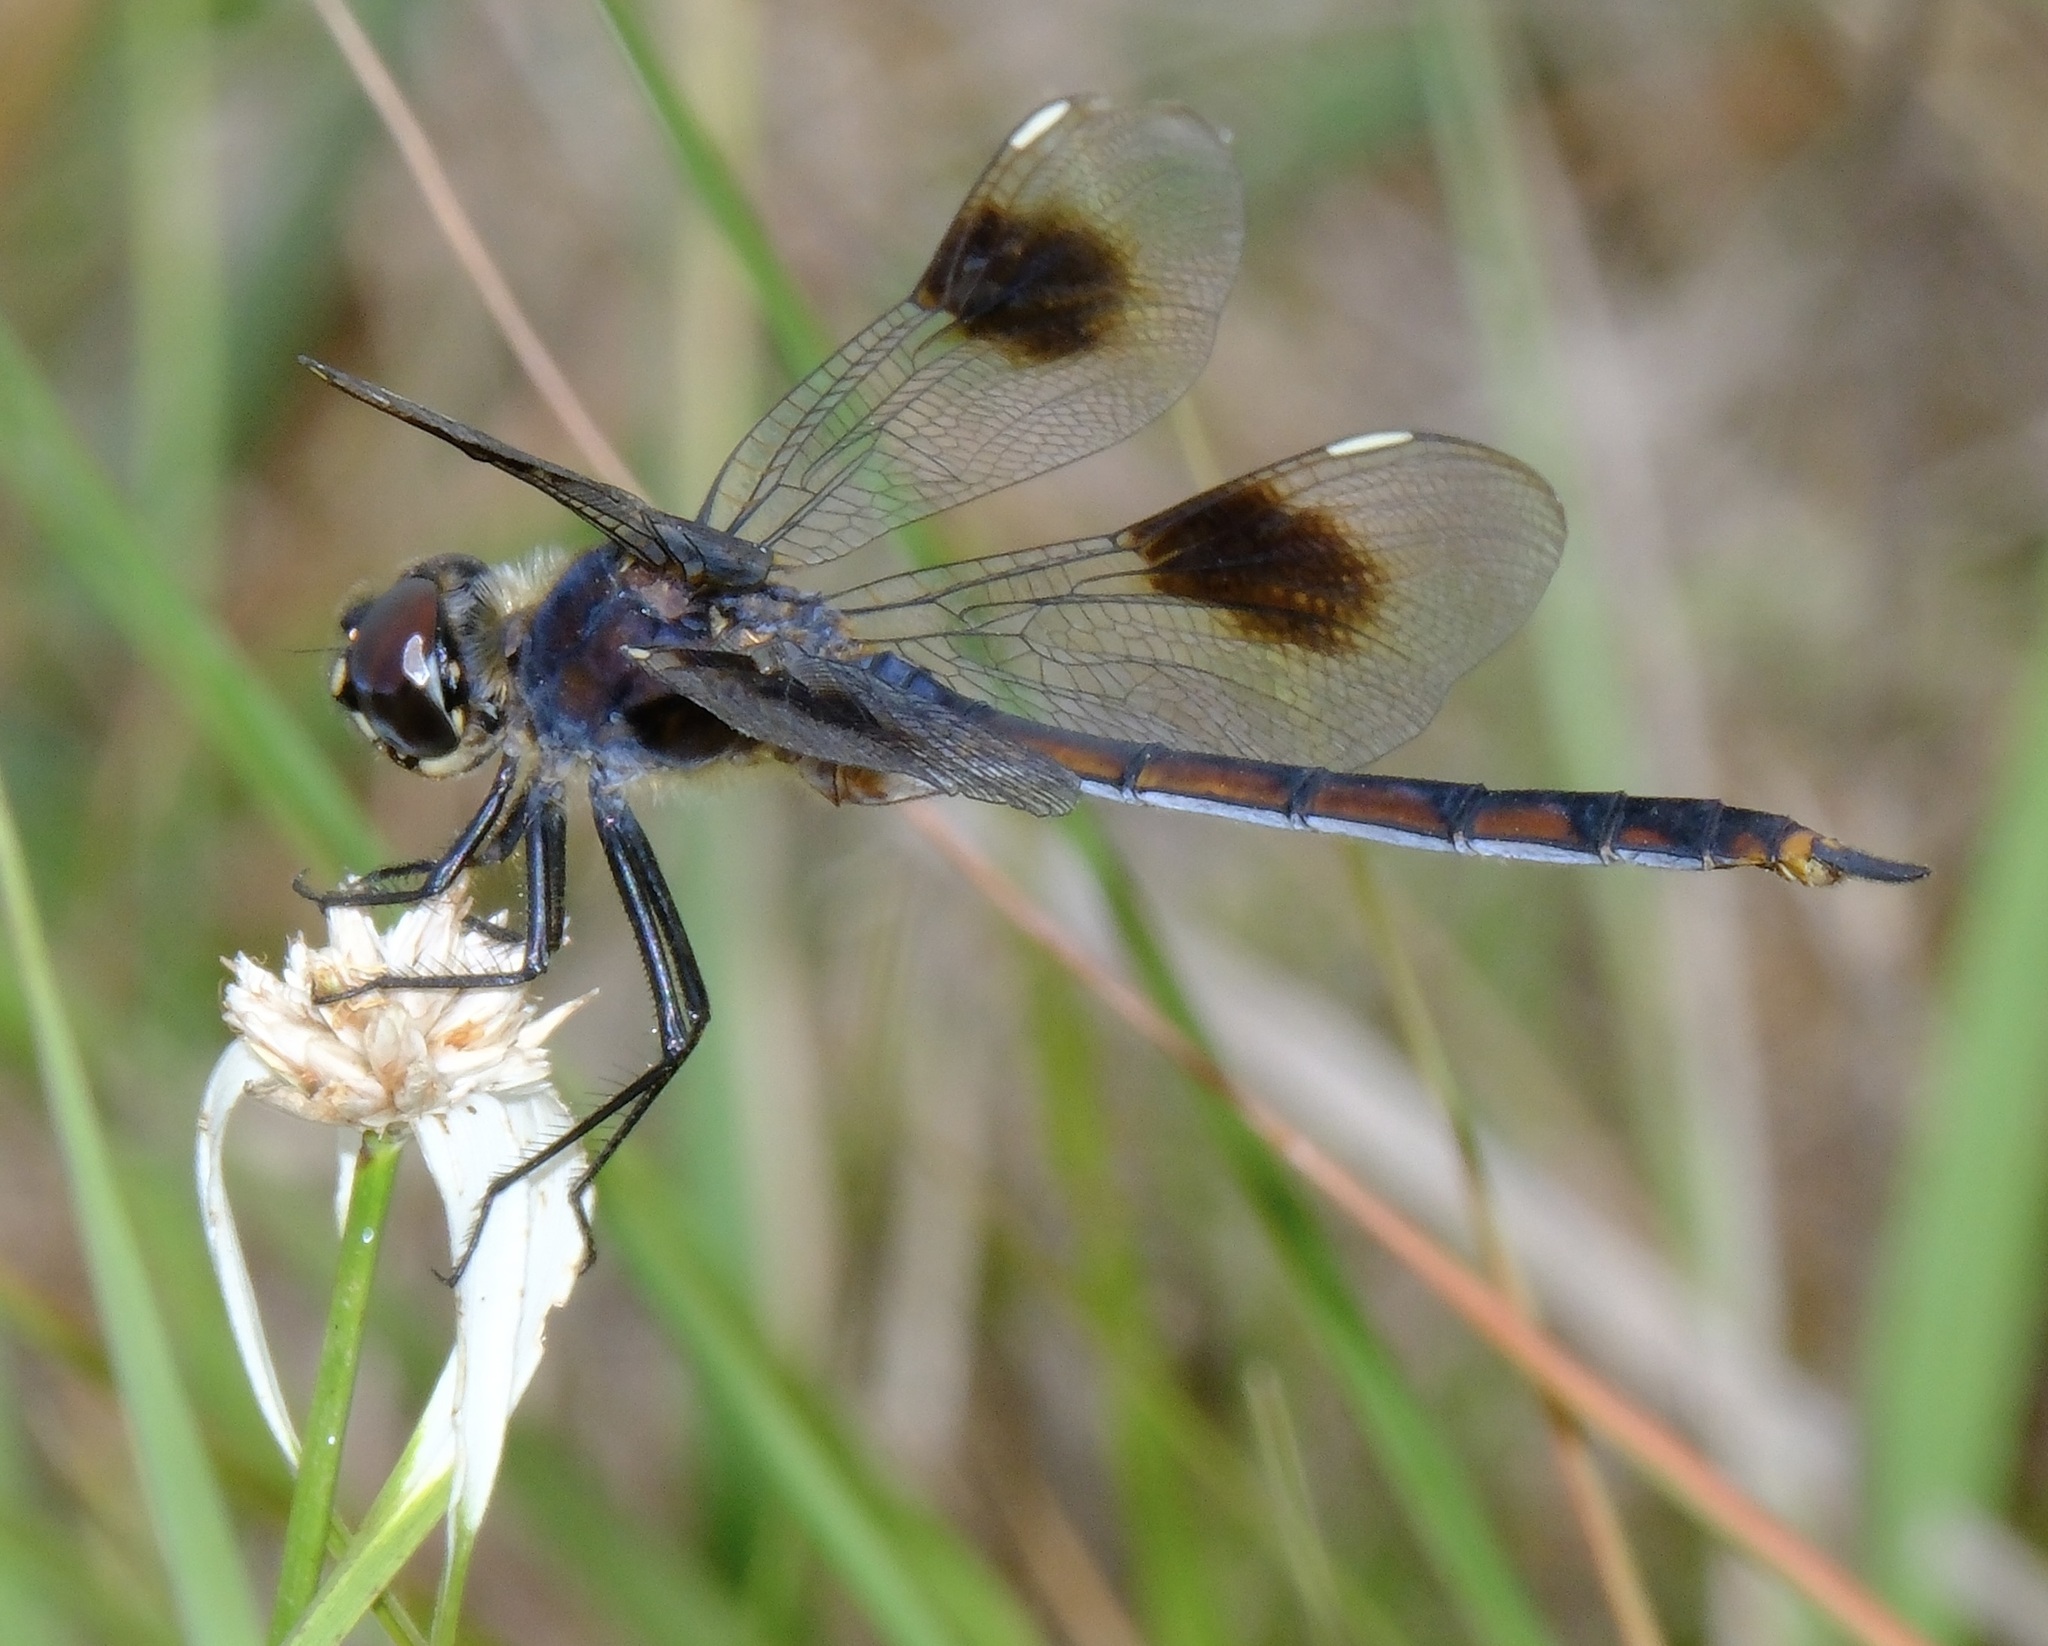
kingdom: Animalia
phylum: Arthropoda
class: Insecta
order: Odonata
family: Libellulidae
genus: Brachymesia
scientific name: Brachymesia gravida
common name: Four-spotted pennant
